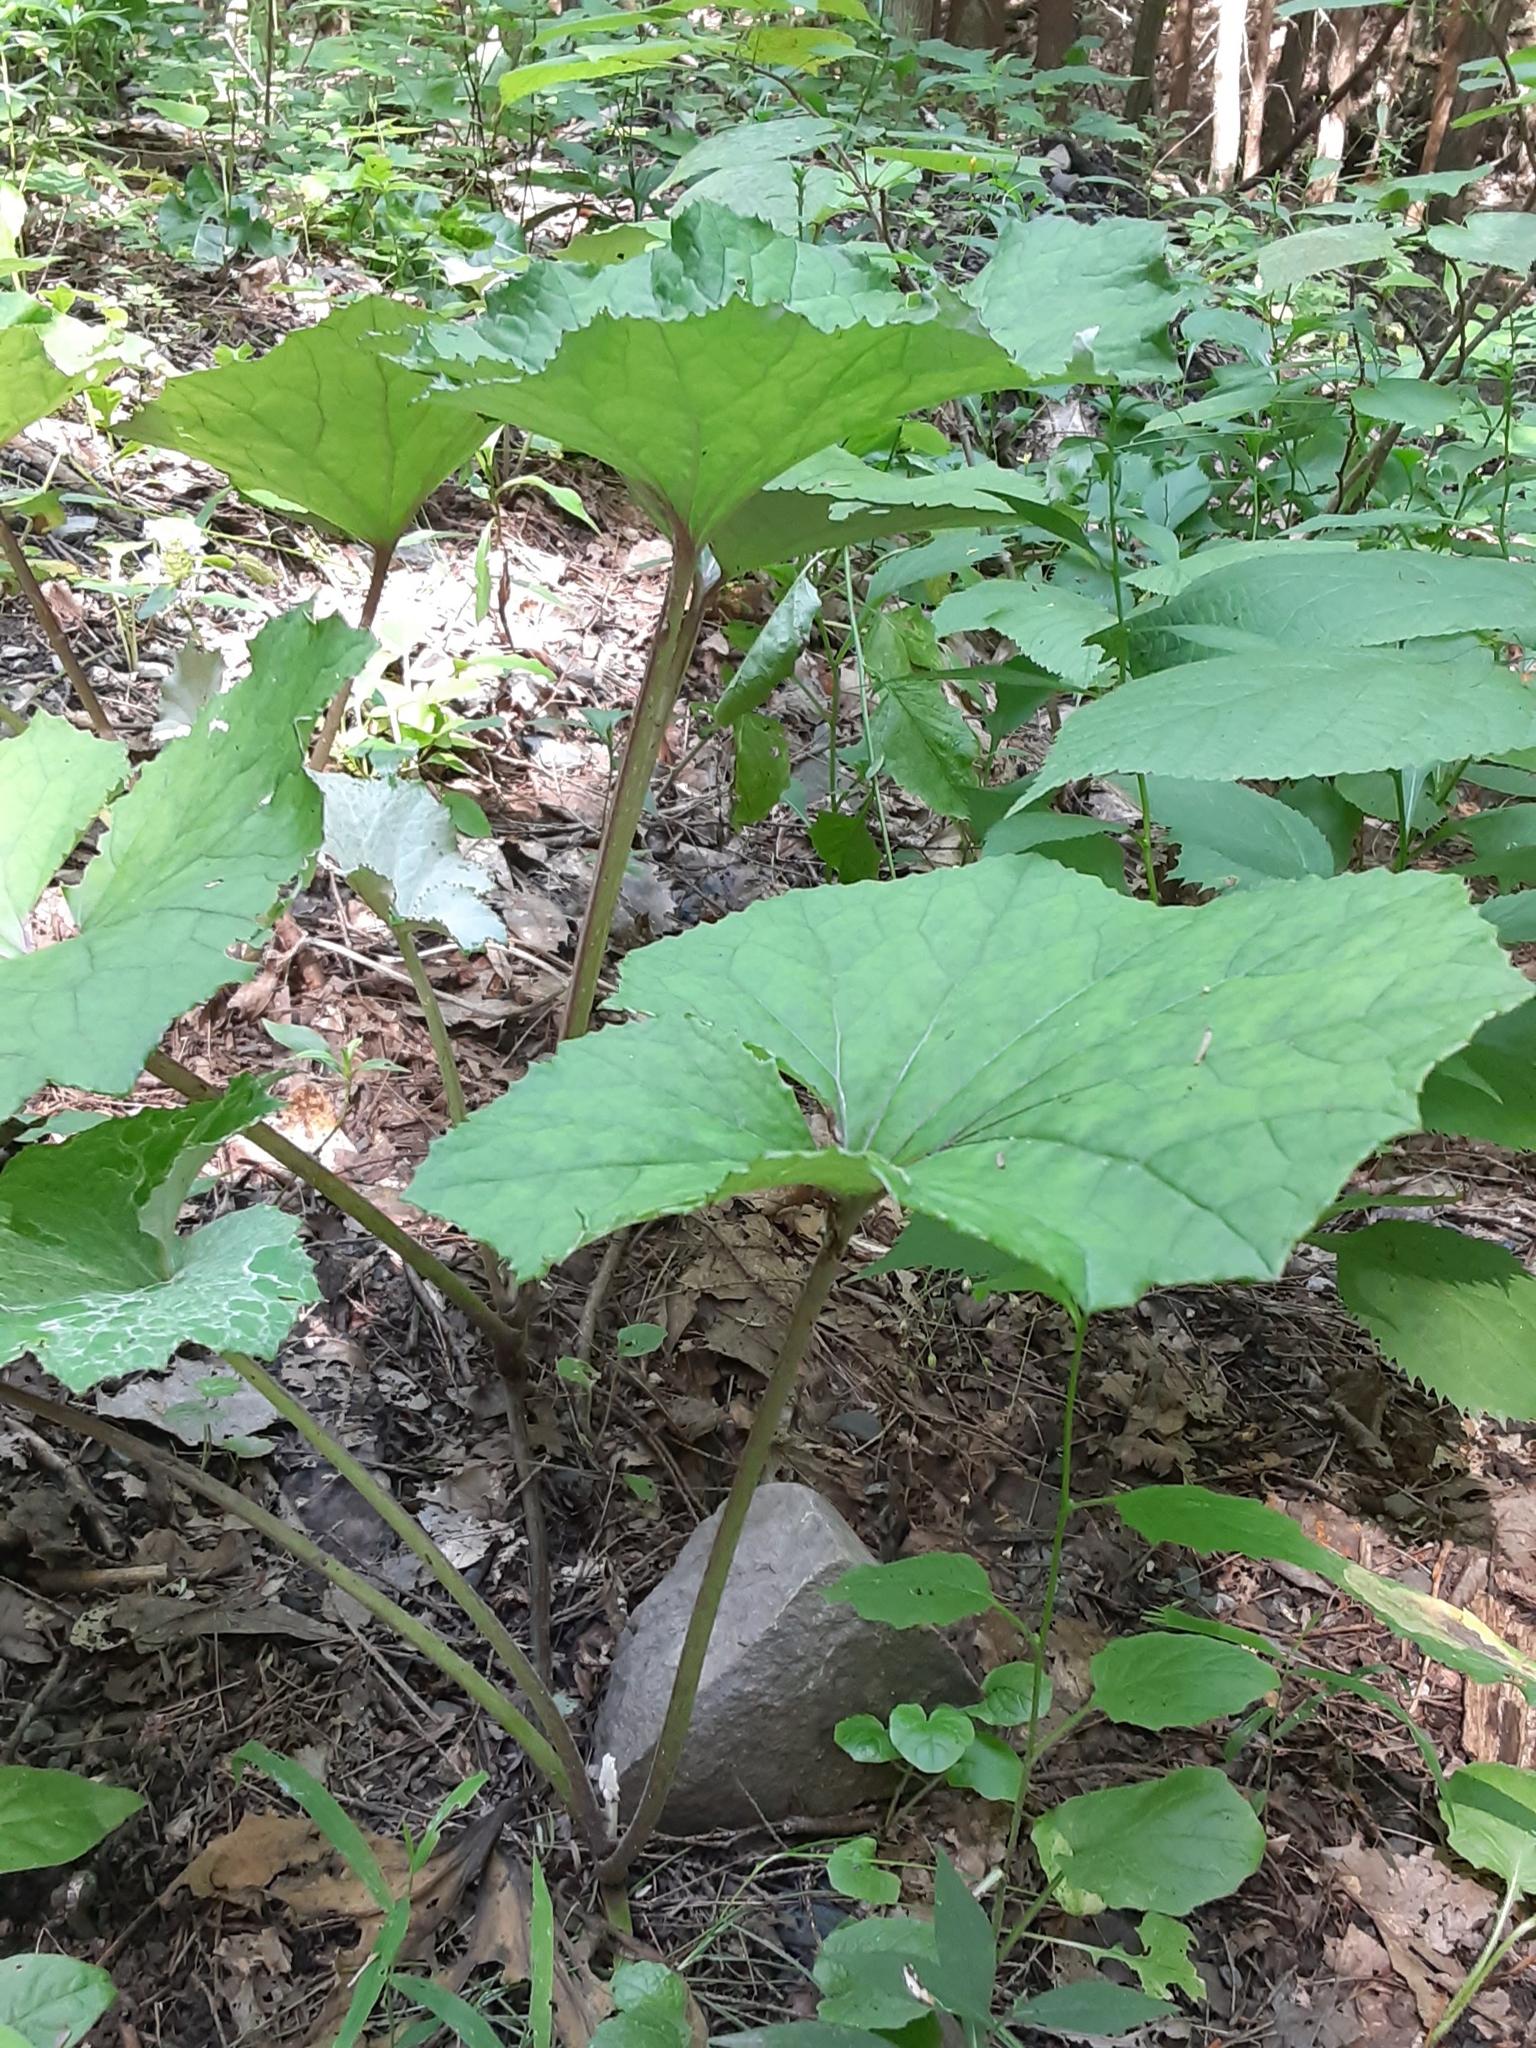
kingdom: Plantae
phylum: Tracheophyta
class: Magnoliopsida
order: Asterales
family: Asteraceae
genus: Tussilago
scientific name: Tussilago farfara
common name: Coltsfoot
